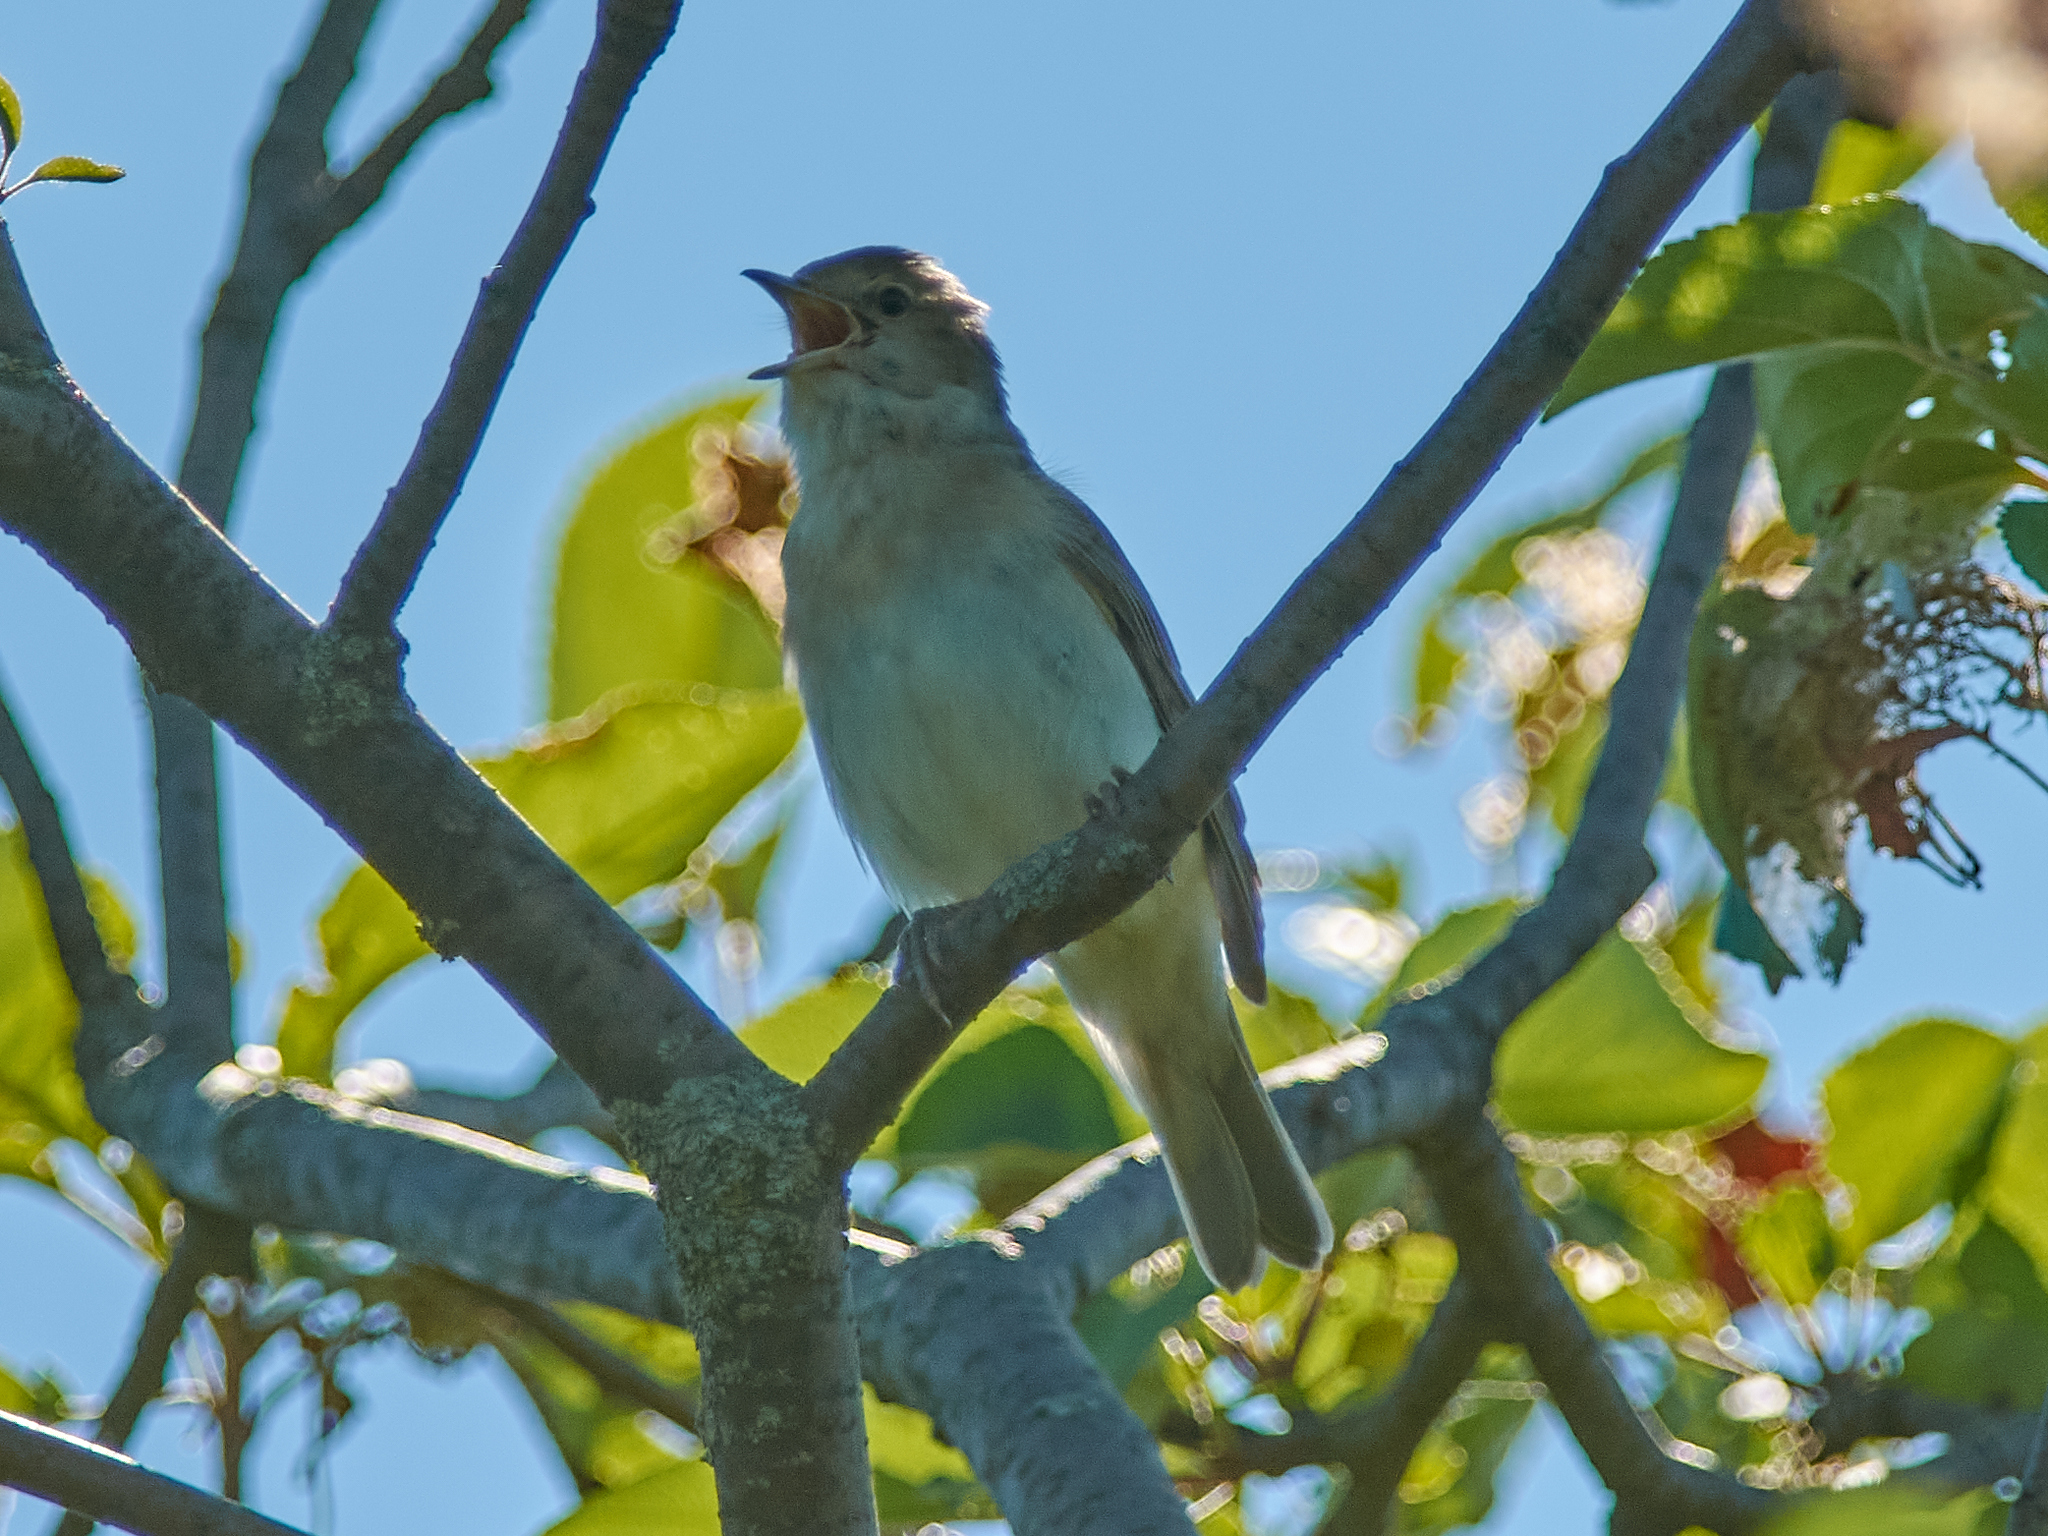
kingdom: Animalia
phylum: Chordata
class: Aves
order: Passeriformes
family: Sylviidae
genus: Sylvia
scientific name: Sylvia borin
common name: Garden warbler
